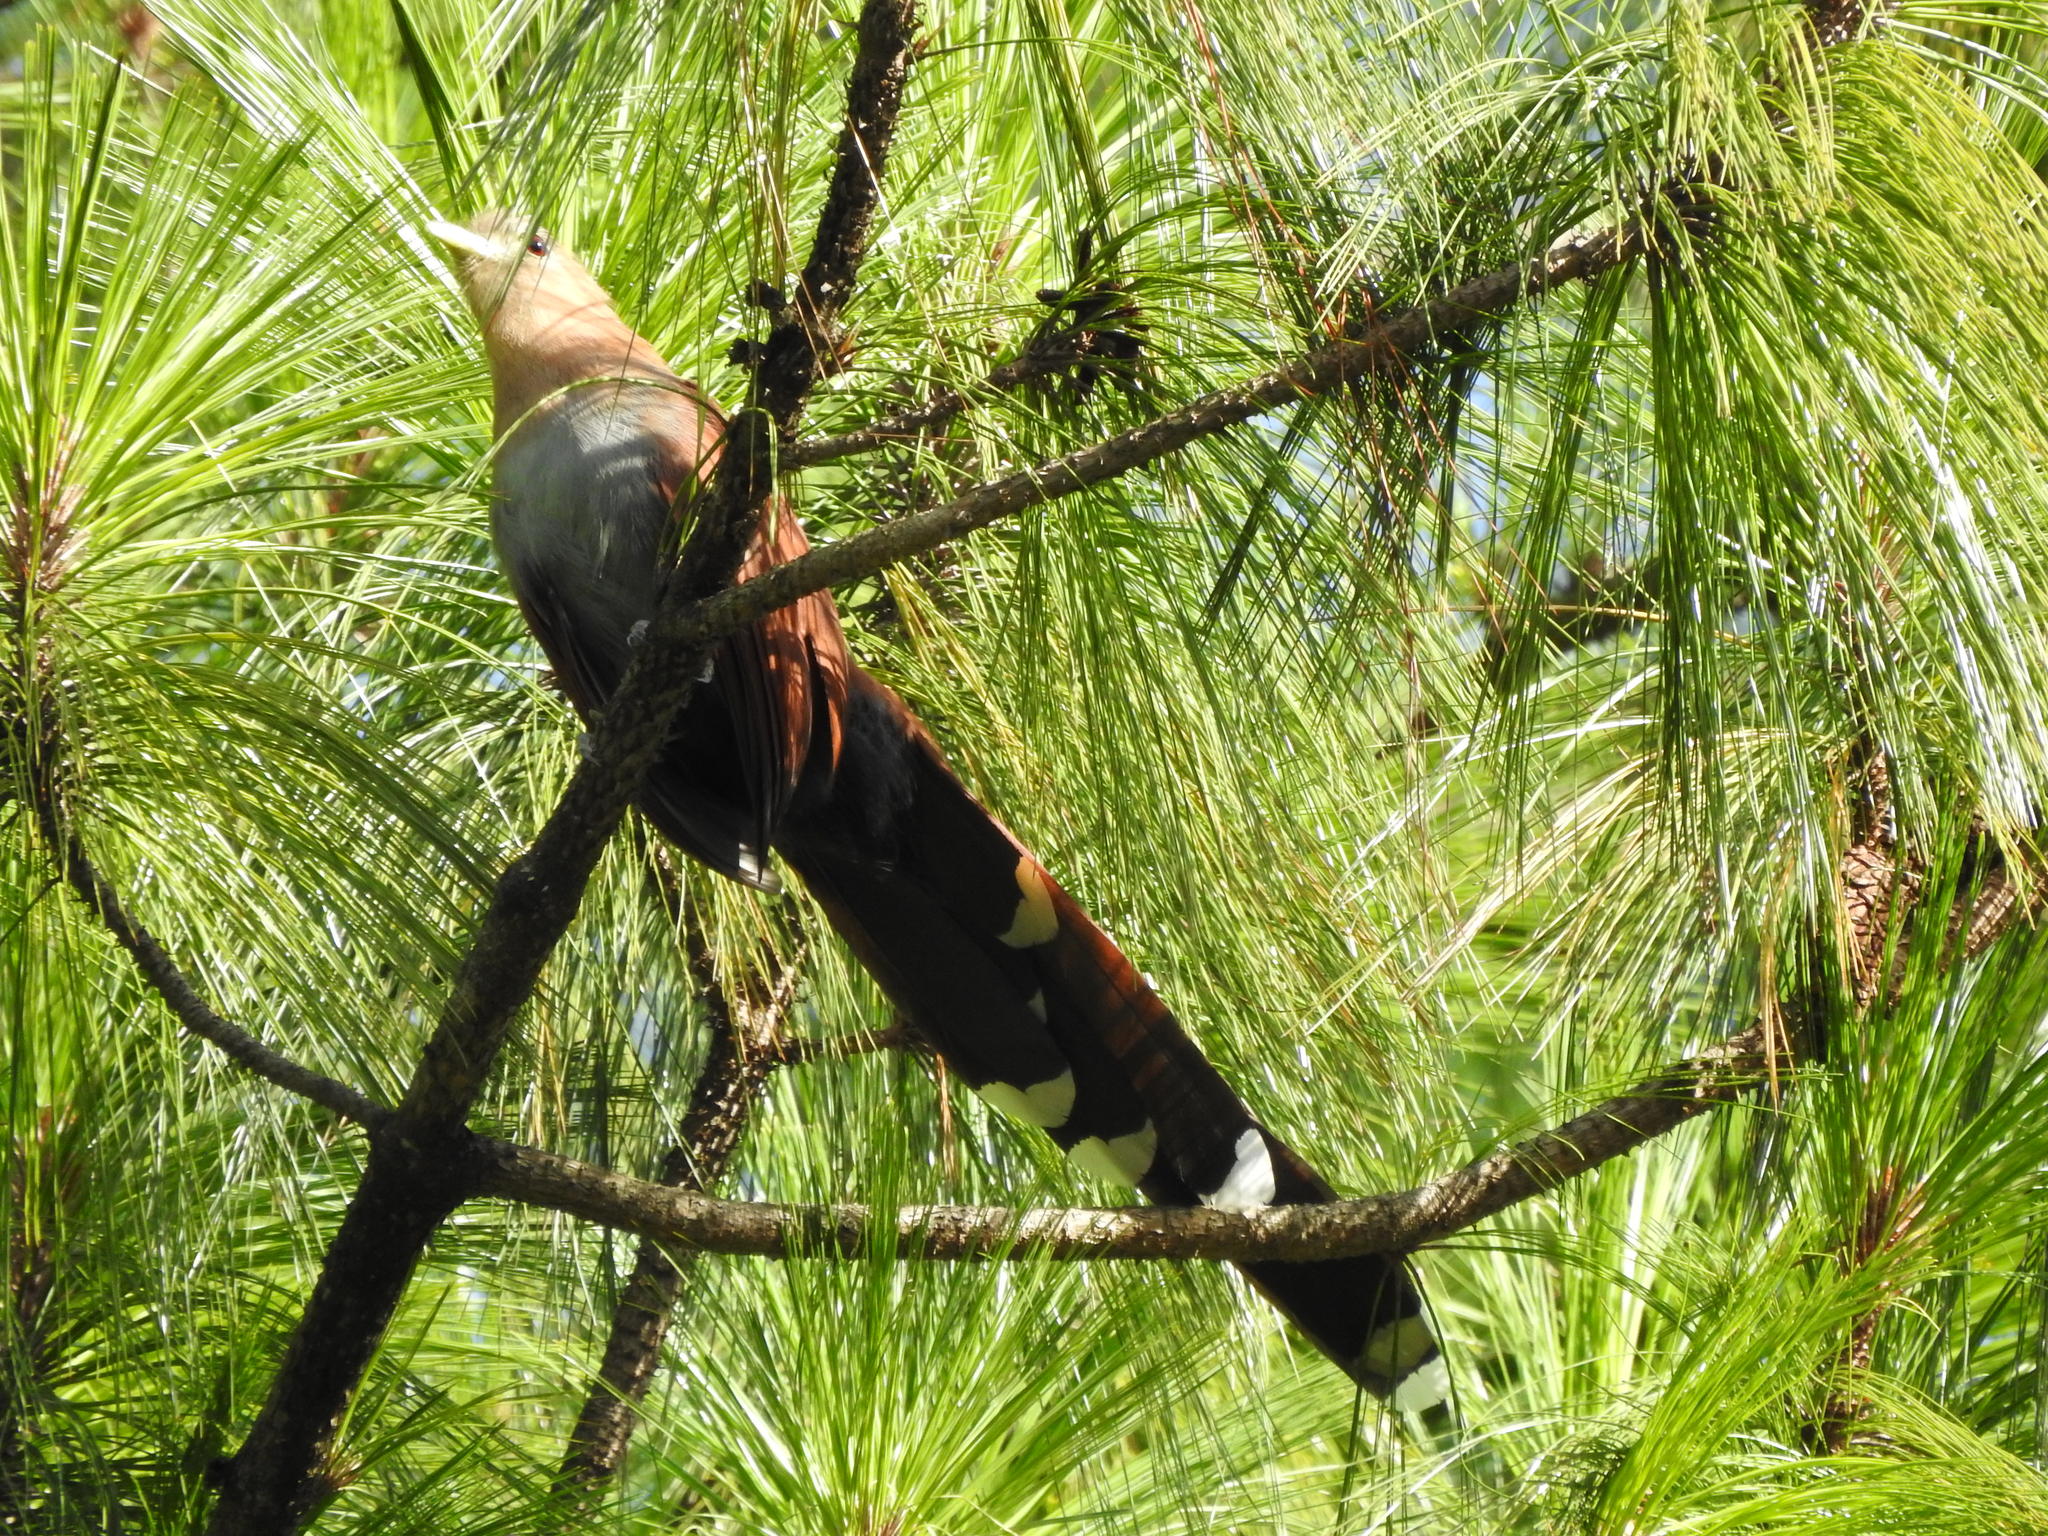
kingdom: Animalia
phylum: Chordata
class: Aves
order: Cuculiformes
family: Cuculidae
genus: Piaya
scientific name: Piaya cayana
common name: Squirrel cuckoo
